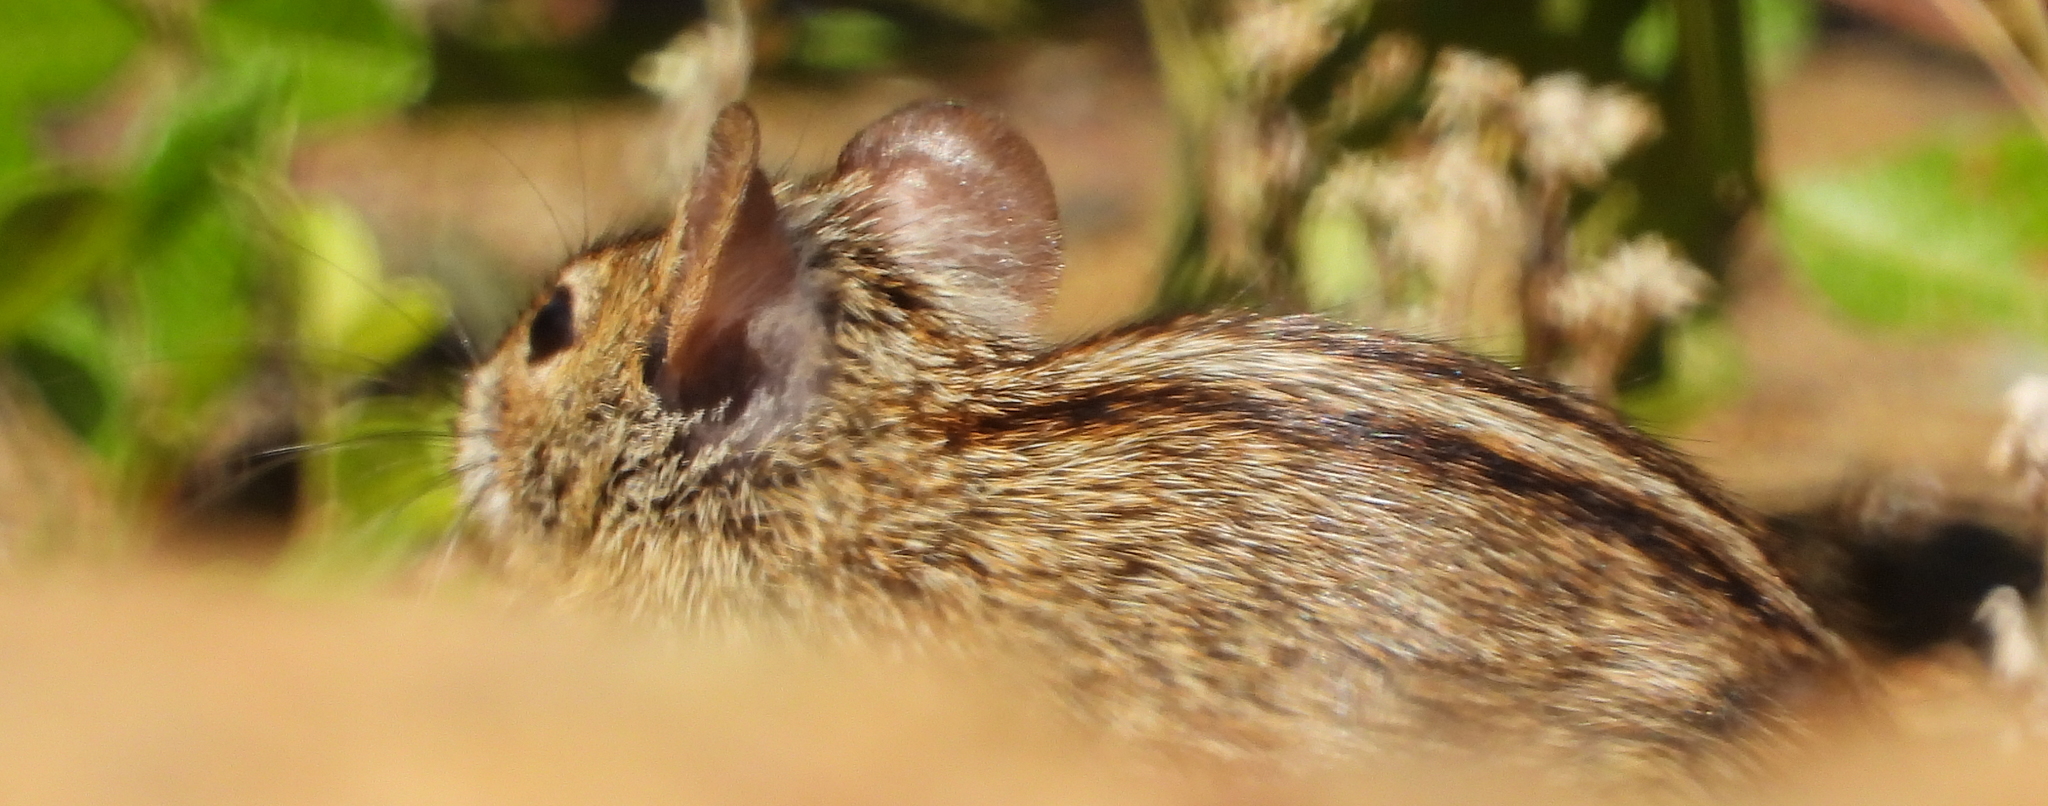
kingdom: Animalia
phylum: Chordata
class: Mammalia
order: Rodentia
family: Muridae
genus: Rhabdomys
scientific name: Rhabdomys pumilio
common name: Xeric four-striped grass rat
